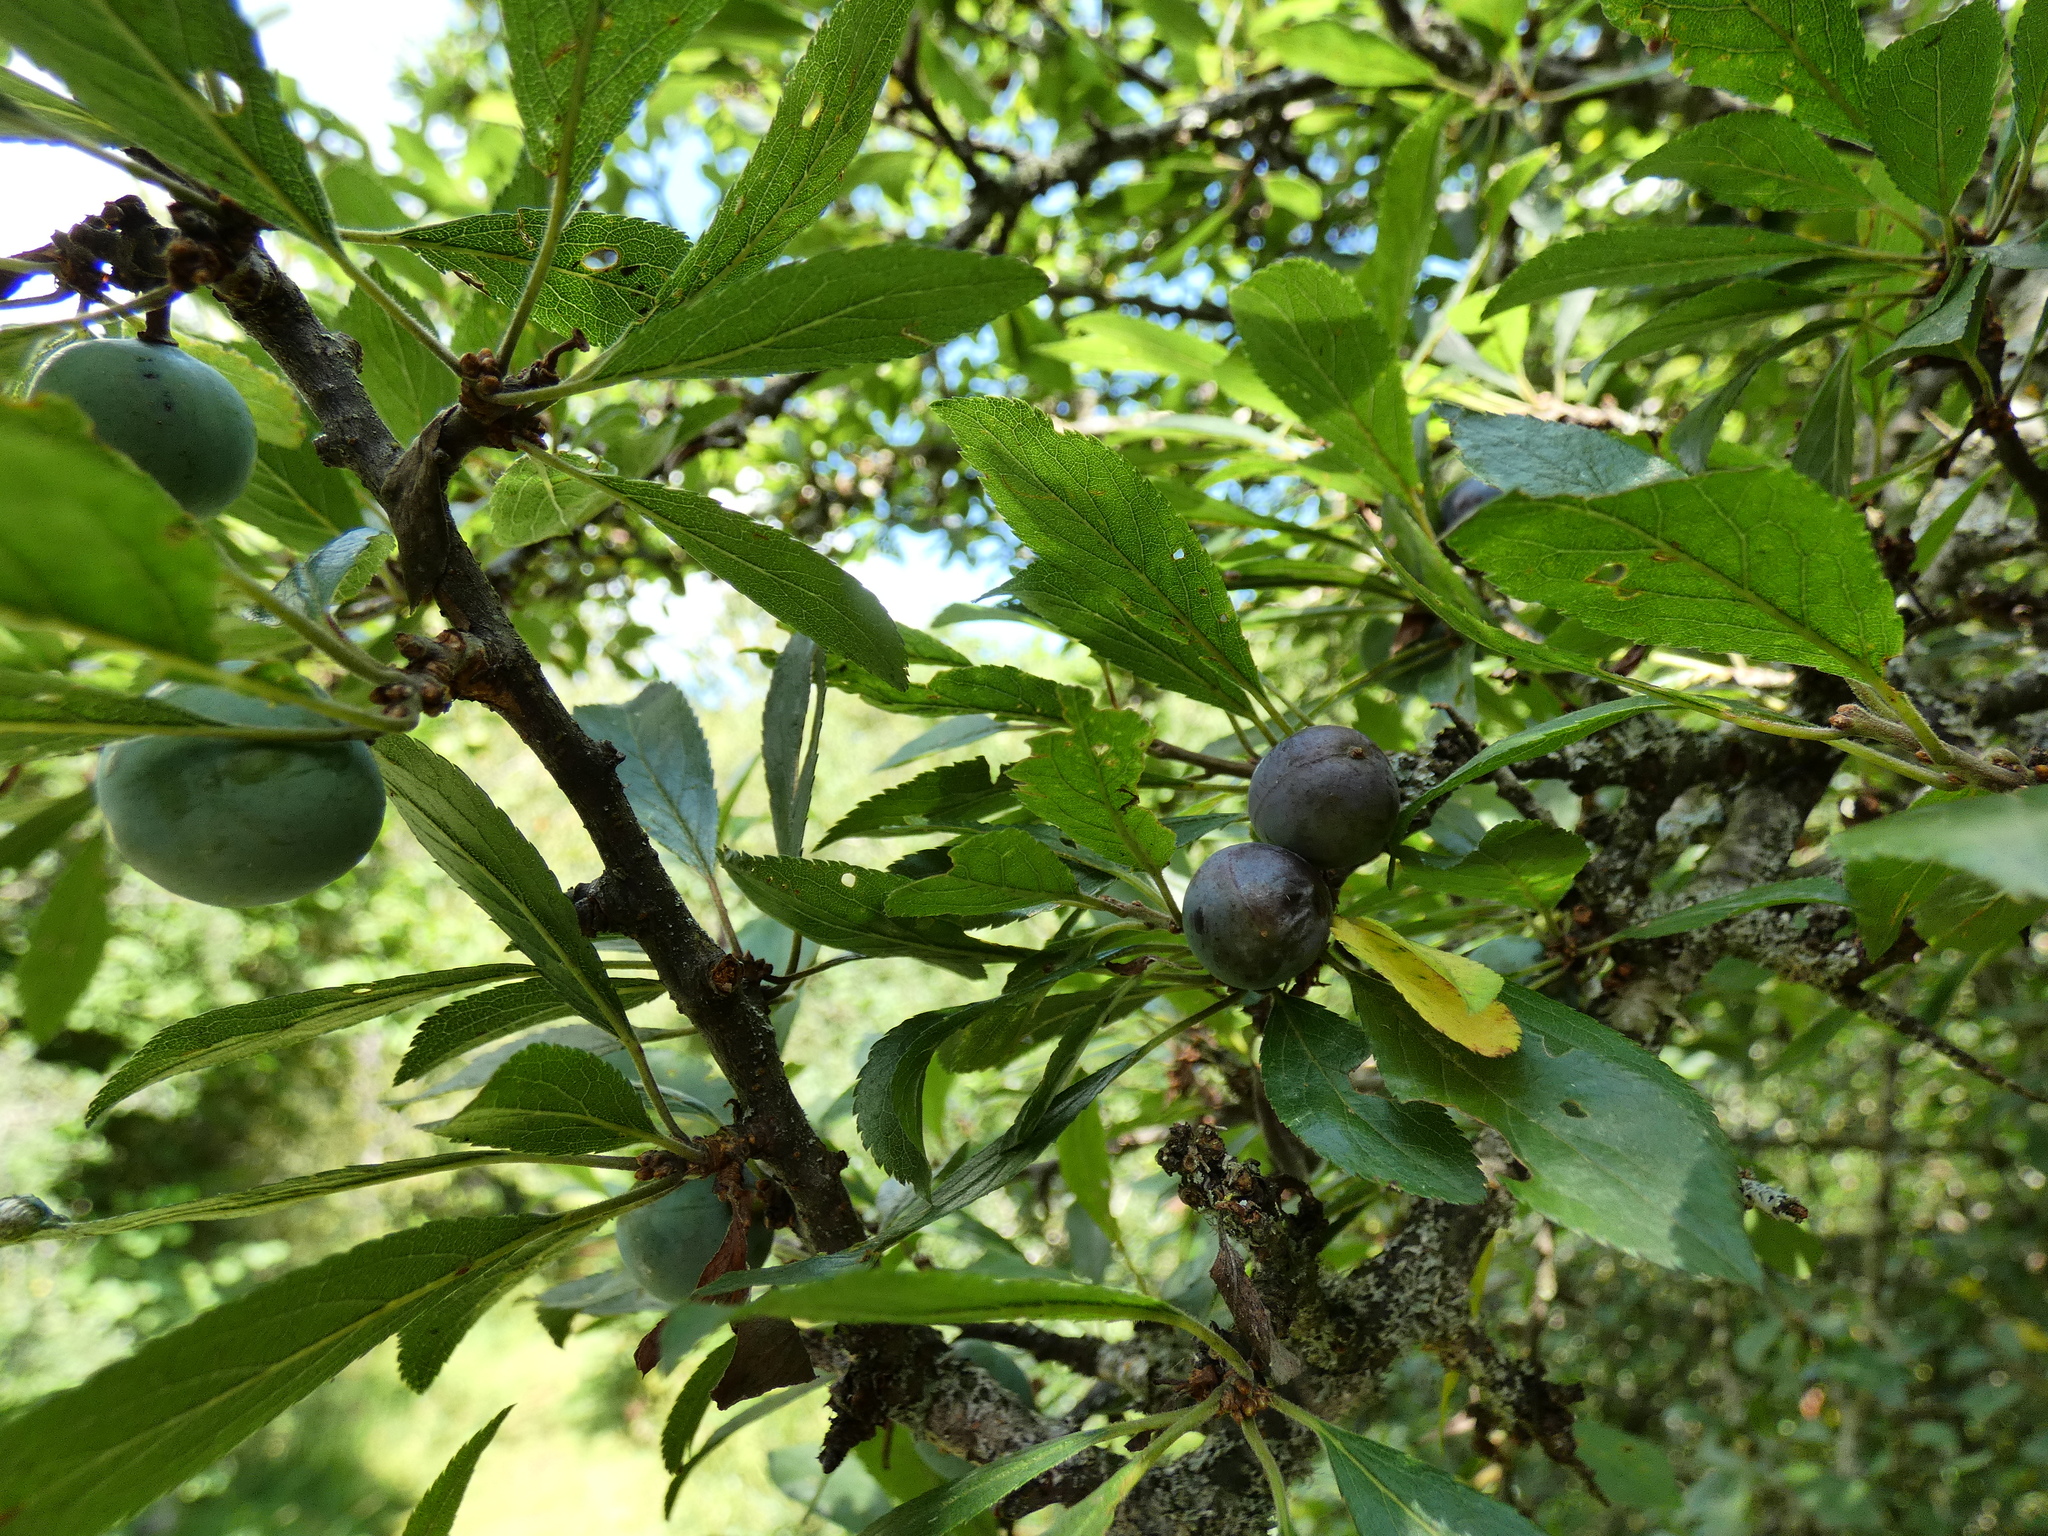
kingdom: Plantae
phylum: Tracheophyta
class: Magnoliopsida
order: Rosales
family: Rosaceae
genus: Prunus
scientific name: Prunus spinosa
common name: Blackthorn
